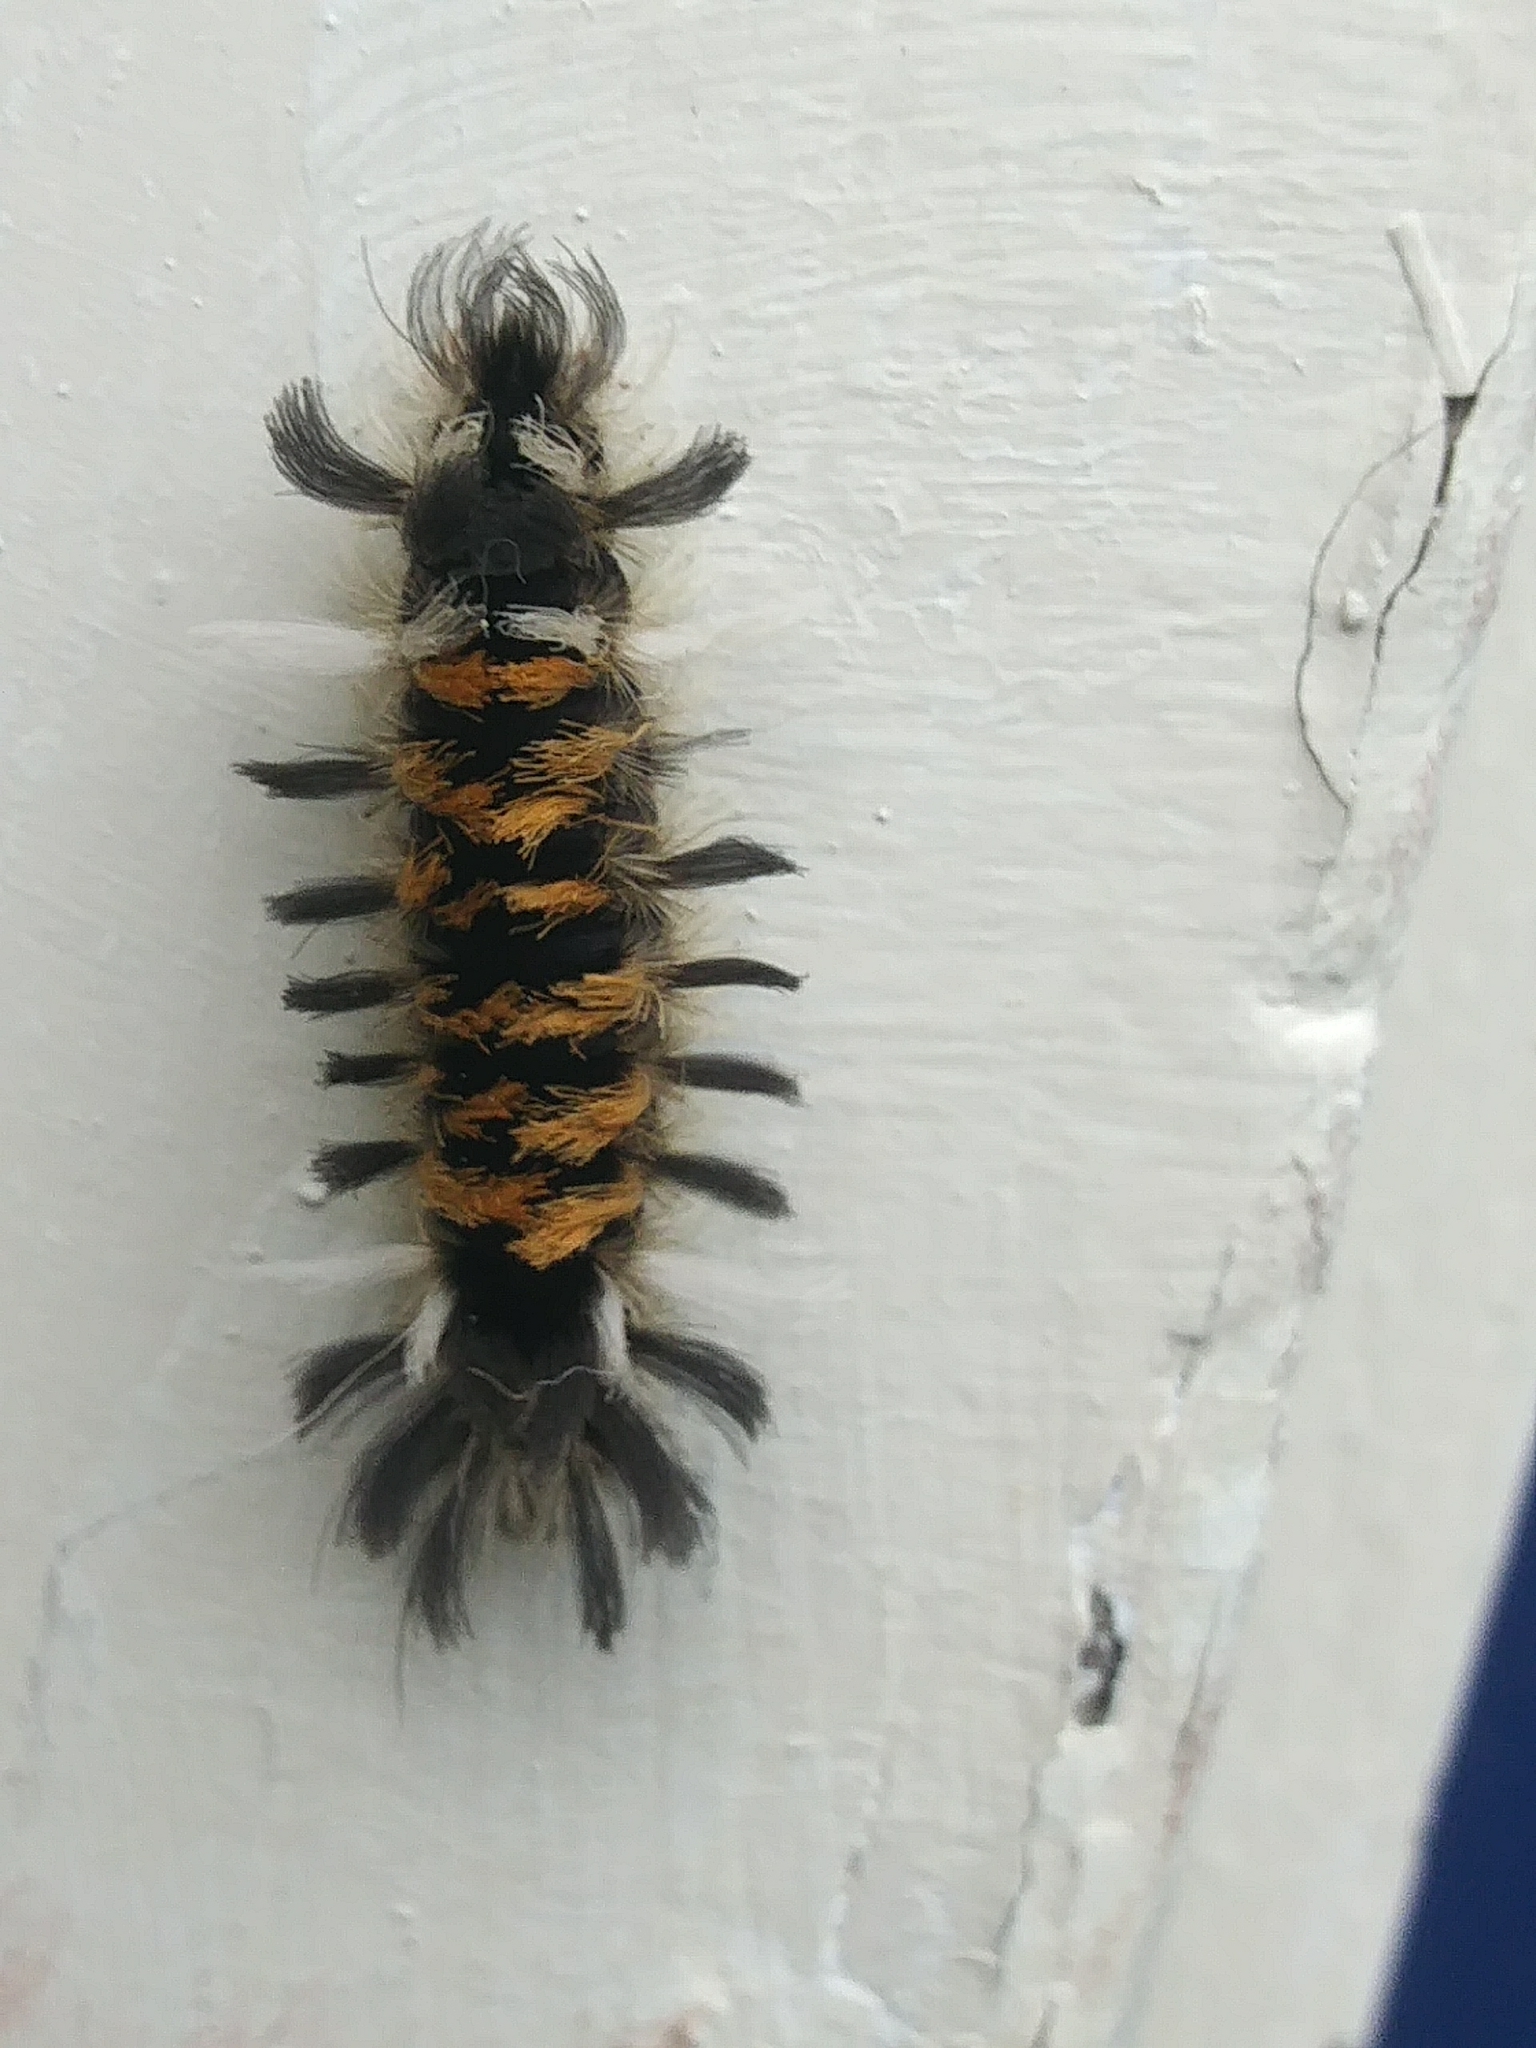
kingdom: Animalia
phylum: Arthropoda
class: Insecta
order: Lepidoptera
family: Erebidae
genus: Euchaetes
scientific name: Euchaetes egle
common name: Milkweed tussock moth
